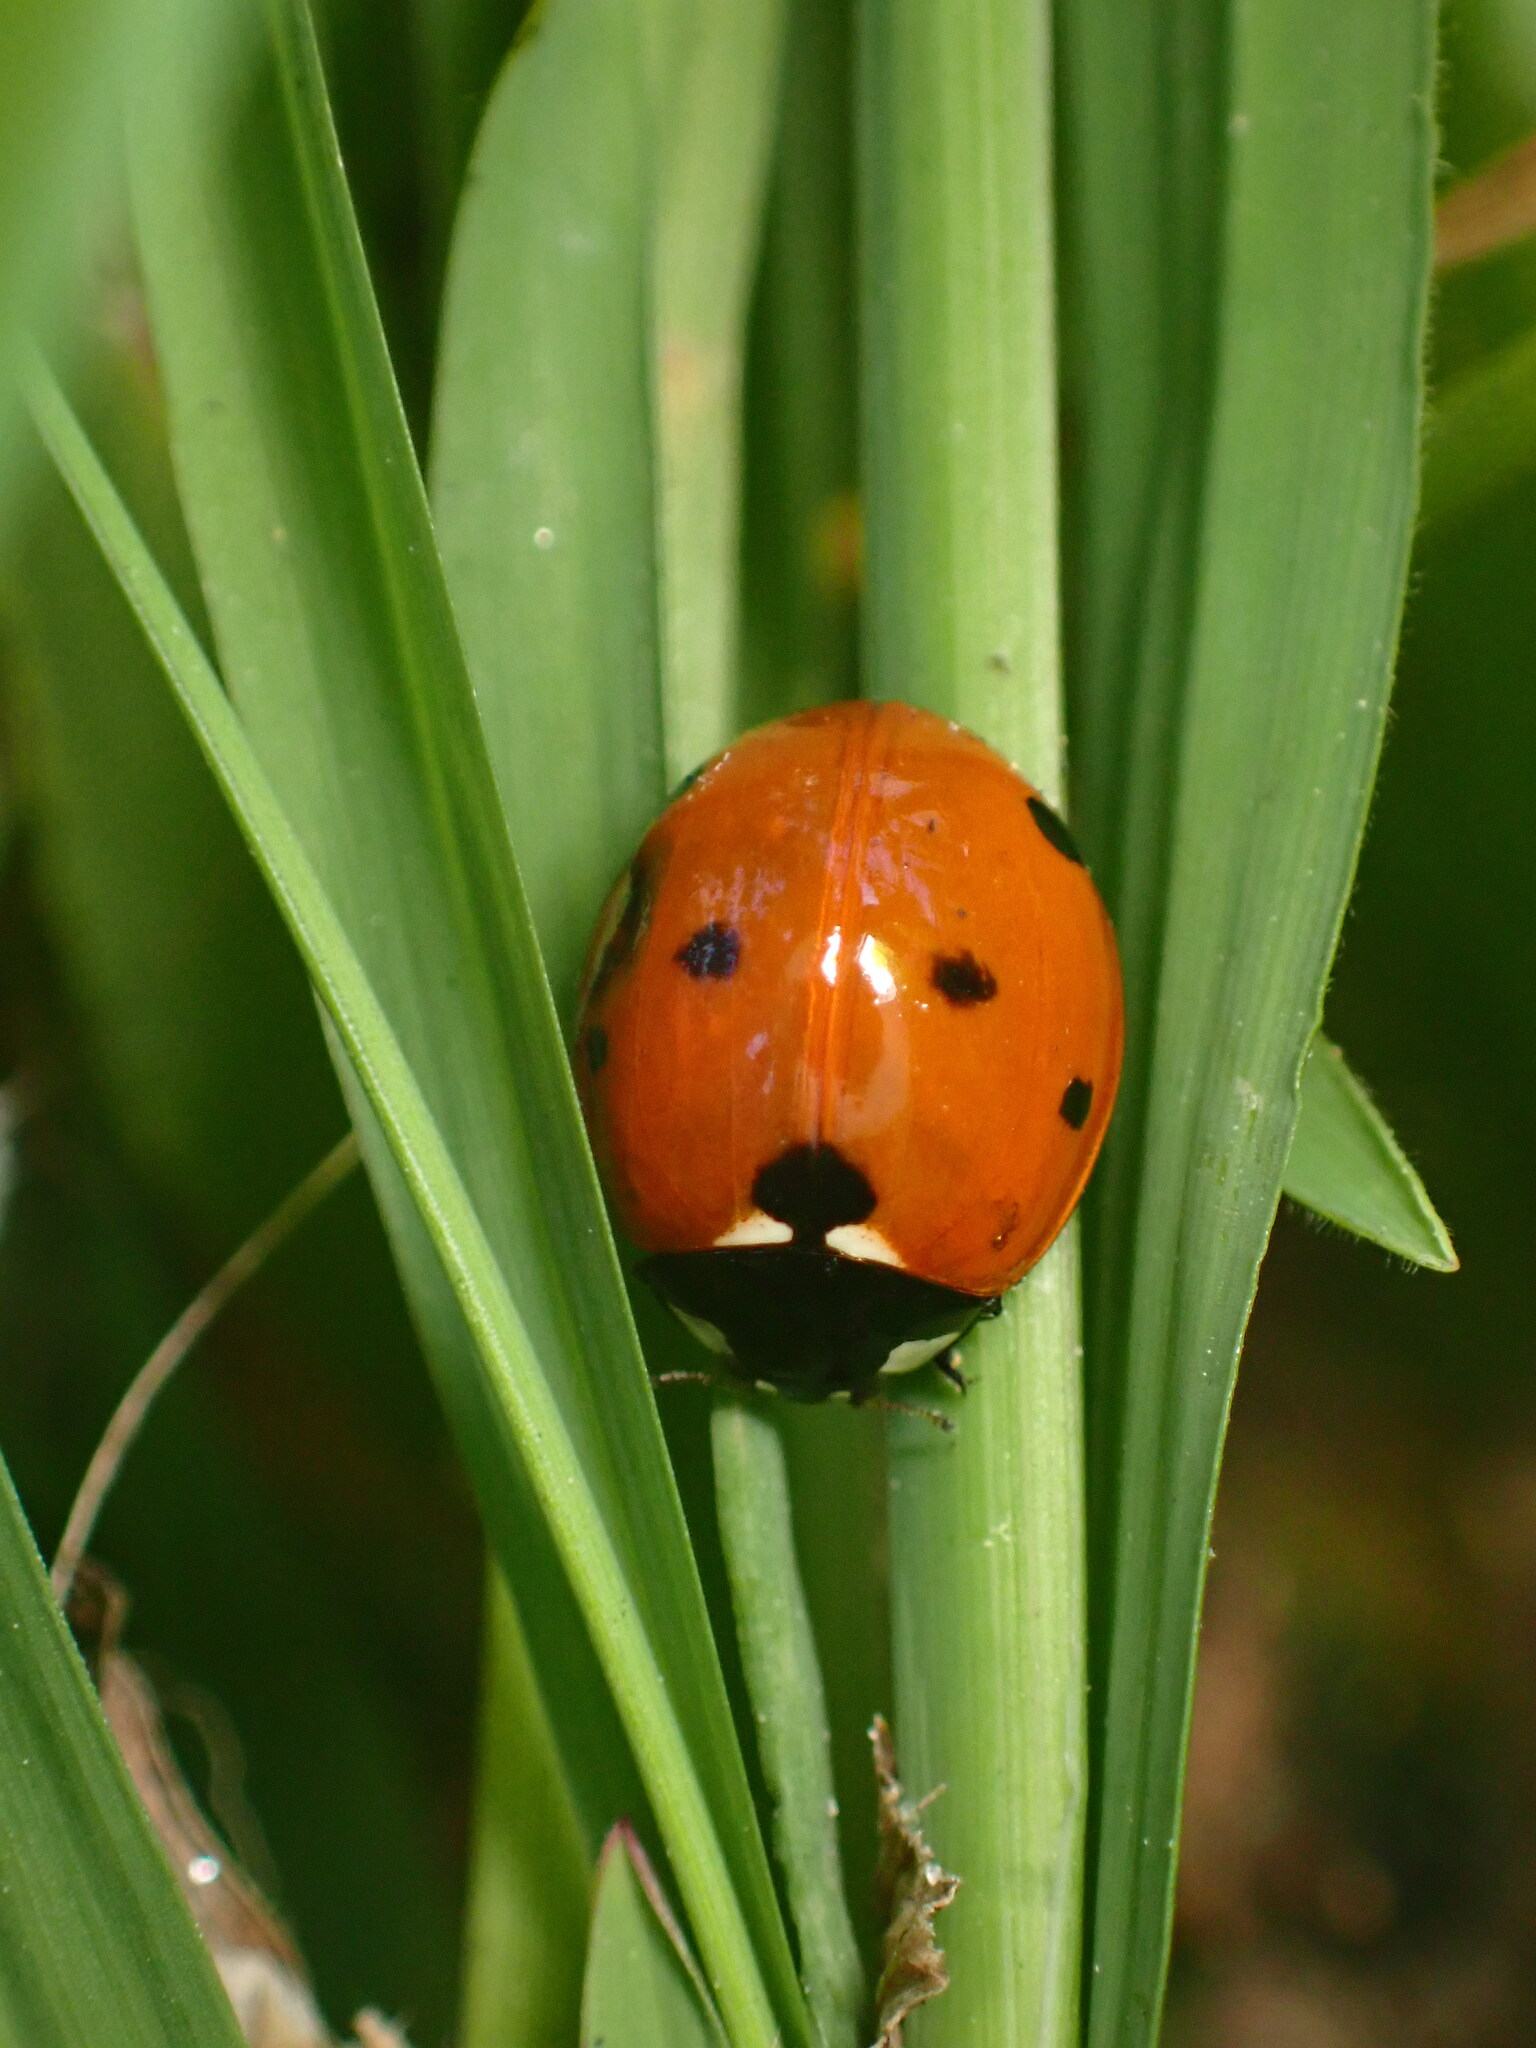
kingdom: Animalia
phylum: Arthropoda
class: Insecta
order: Coleoptera
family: Coccinellidae
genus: Coccinella
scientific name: Coccinella septempunctata
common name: Sevenspotted lady beetle
